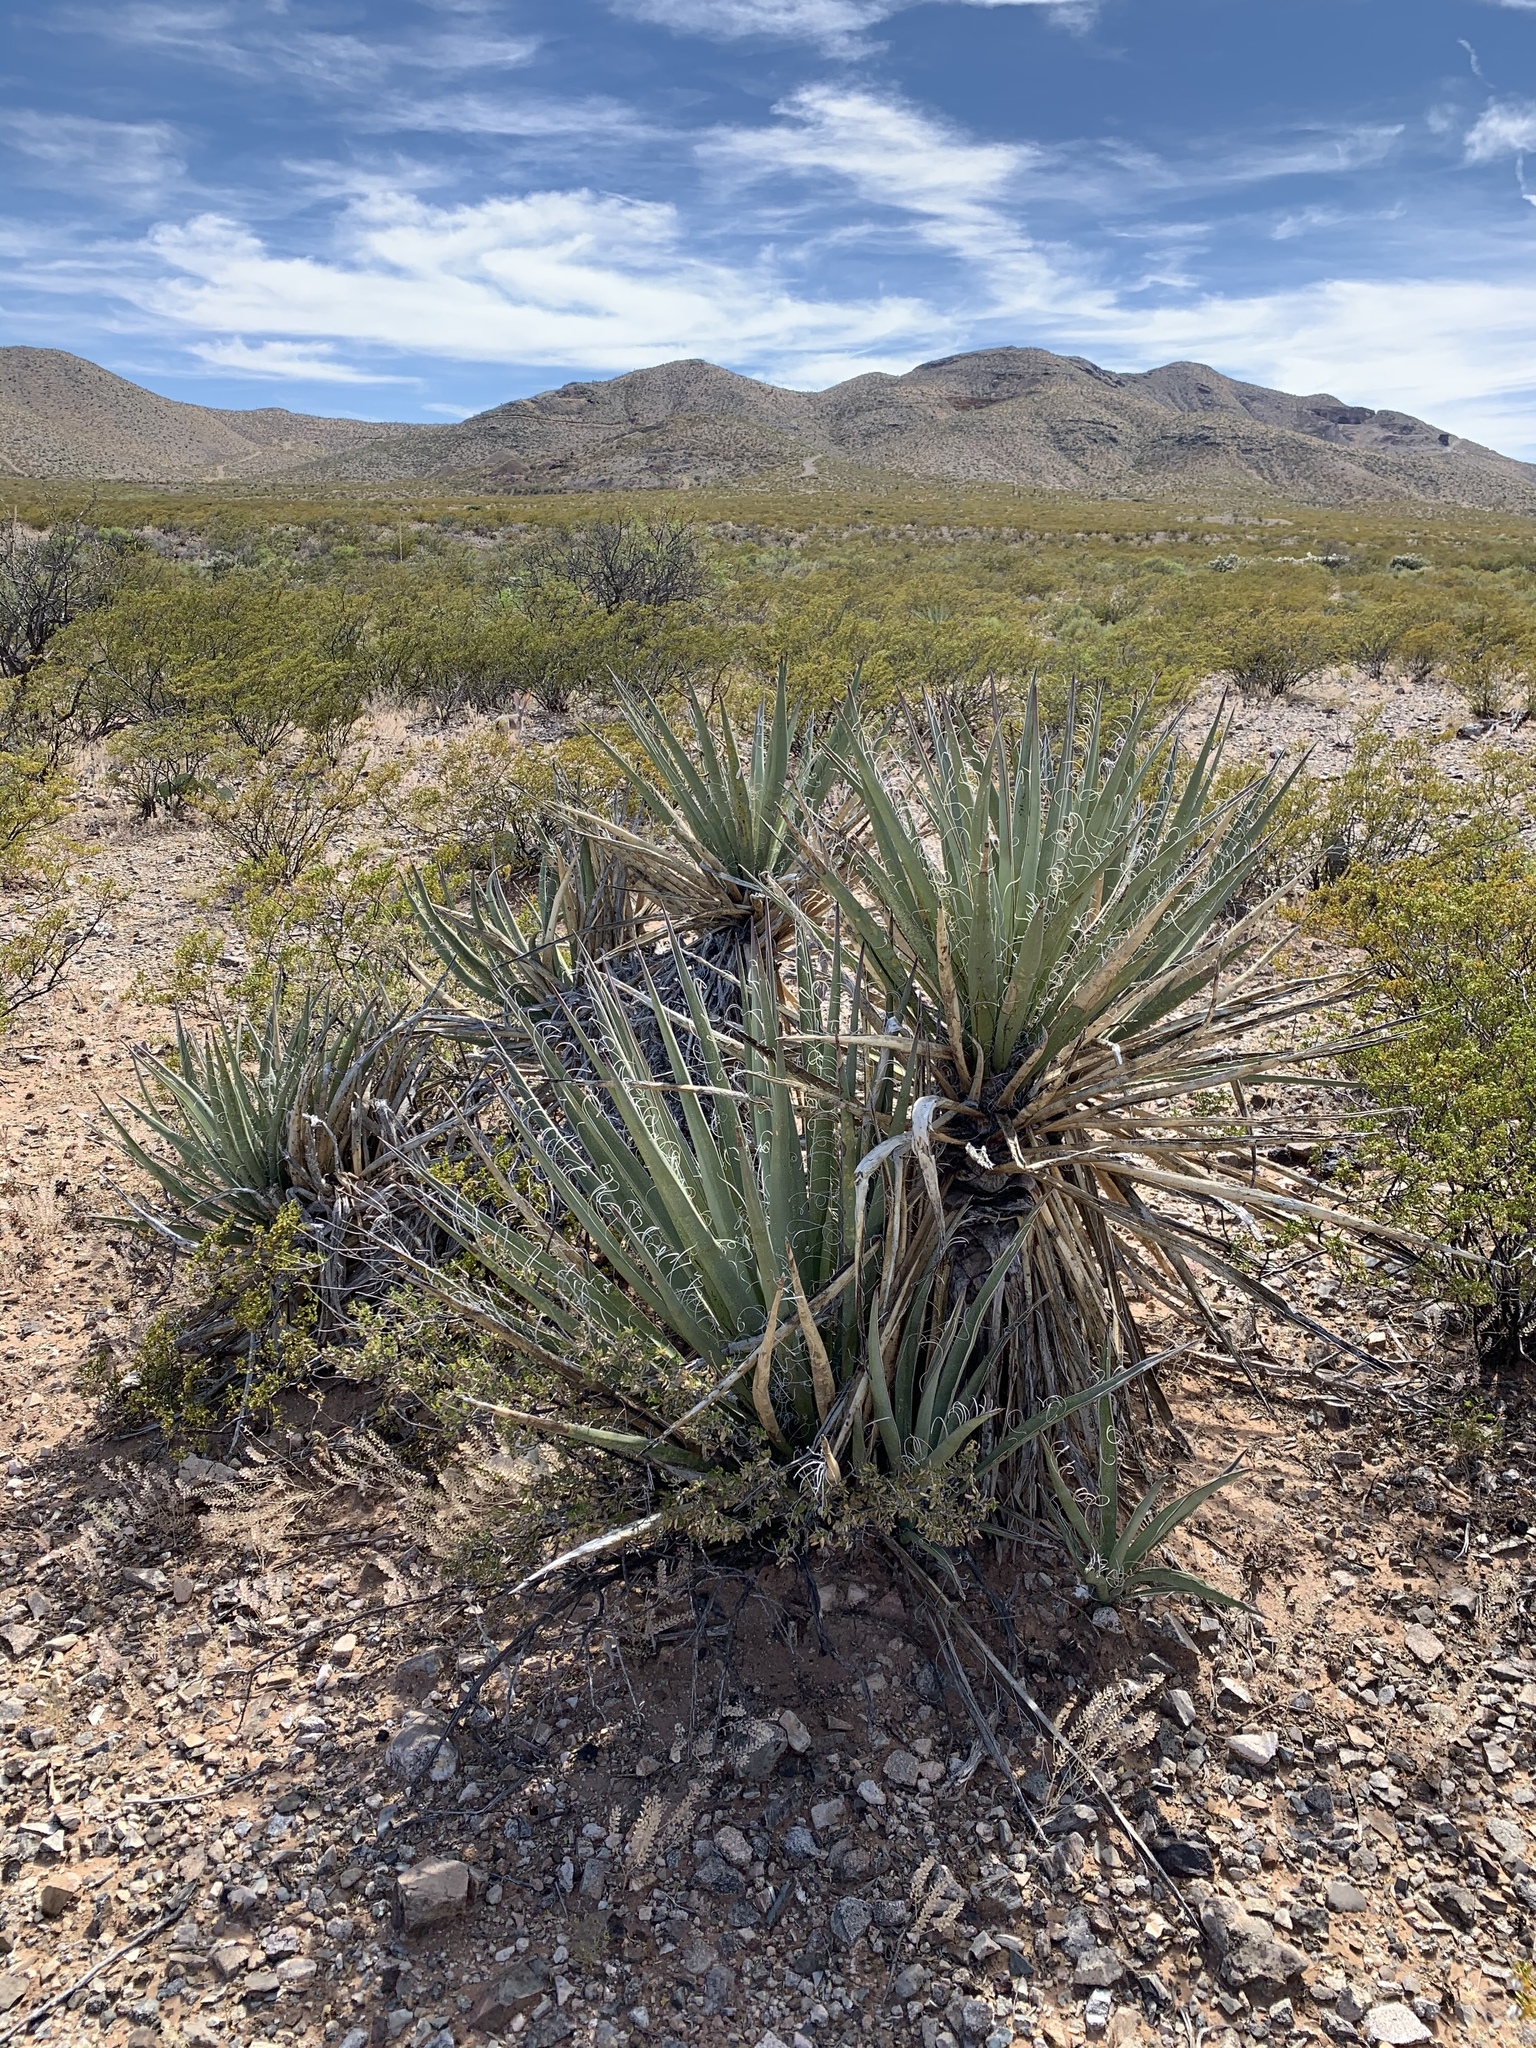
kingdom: Plantae
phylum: Tracheophyta
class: Liliopsida
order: Asparagales
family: Asparagaceae
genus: Yucca
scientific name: Yucca baccata
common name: Banana yucca
